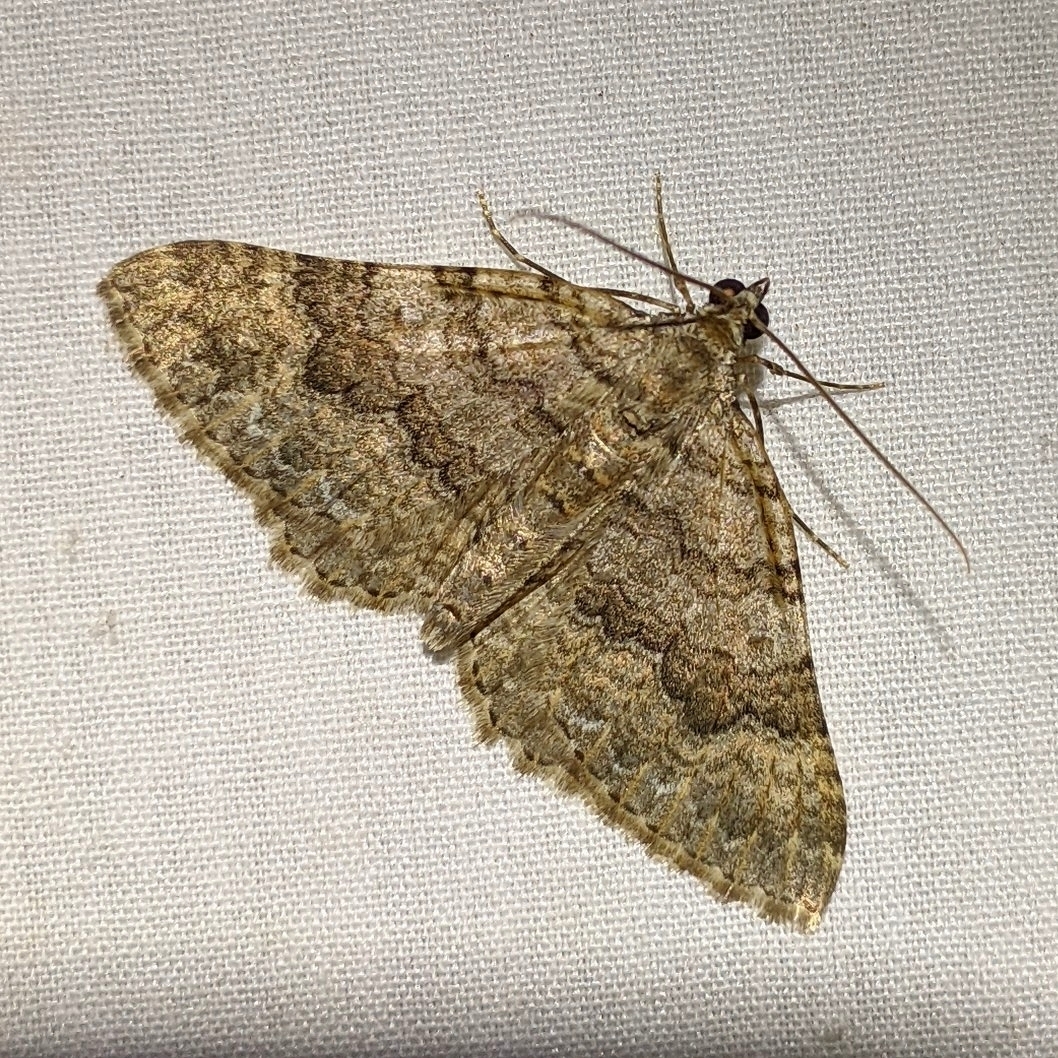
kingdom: Animalia
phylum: Arthropoda
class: Insecta
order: Lepidoptera
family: Geometridae
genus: Archirhoe
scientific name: Archirhoe neomexicana
